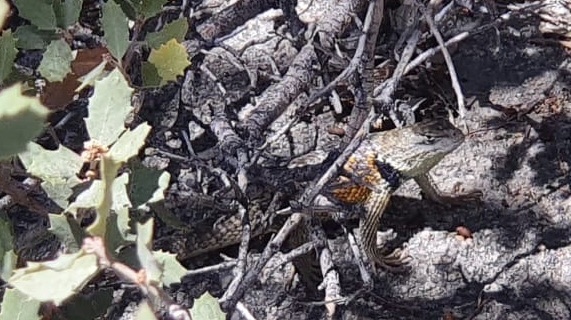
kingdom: Animalia
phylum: Chordata
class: Squamata
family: Phrynosomatidae
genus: Sceloporus
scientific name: Sceloporus magister
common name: Desert spiny lizard
